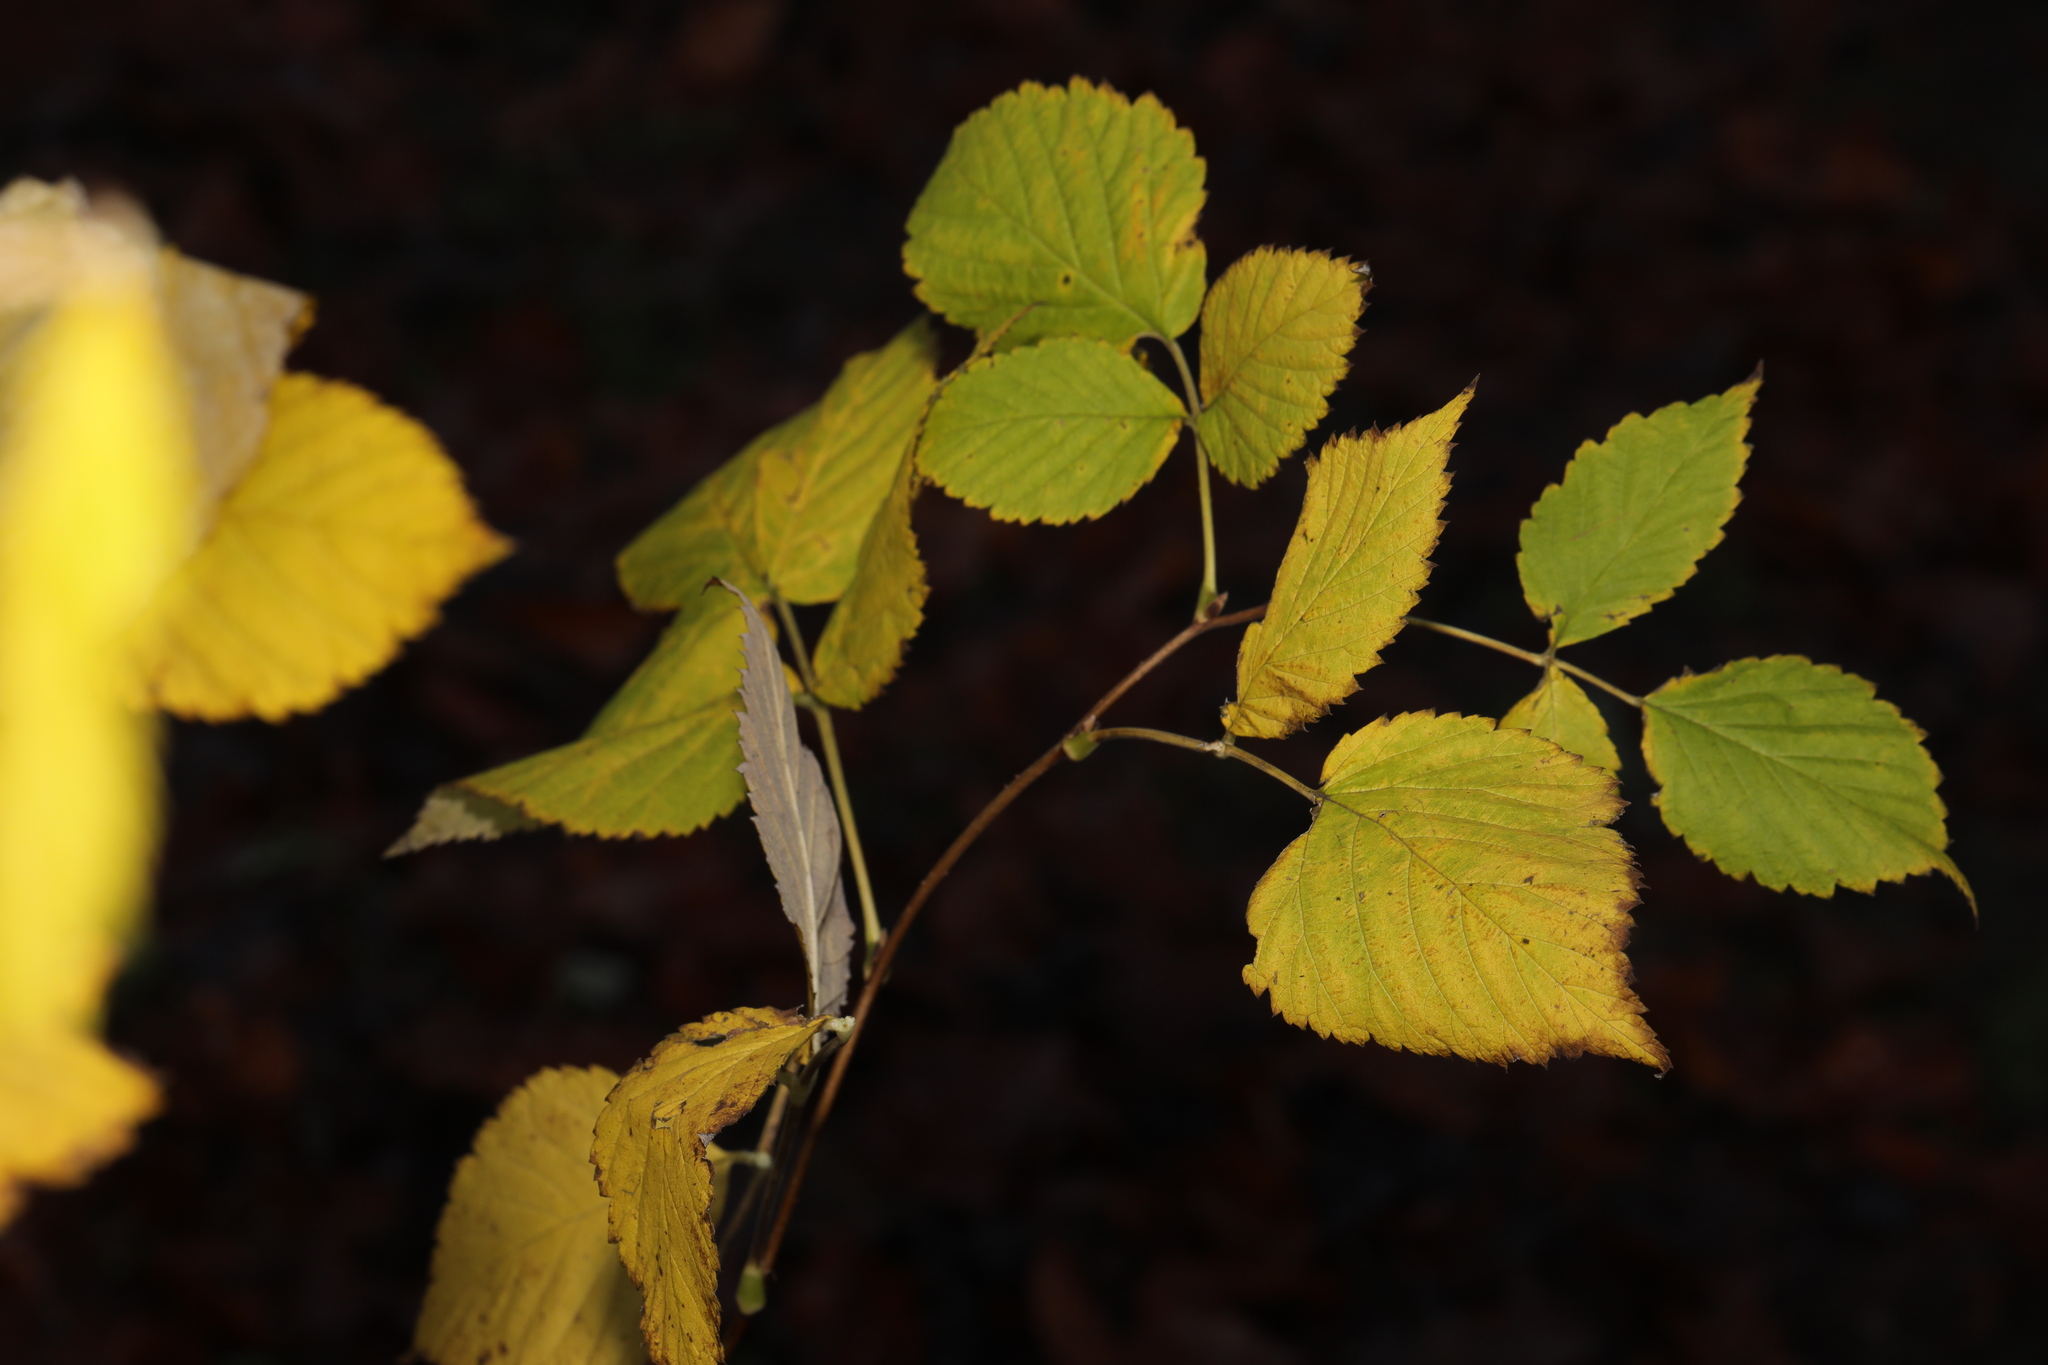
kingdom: Plantae
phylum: Tracheophyta
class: Magnoliopsida
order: Rosales
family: Rosaceae
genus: Rubus
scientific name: Rubus idaeus
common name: Raspberry
